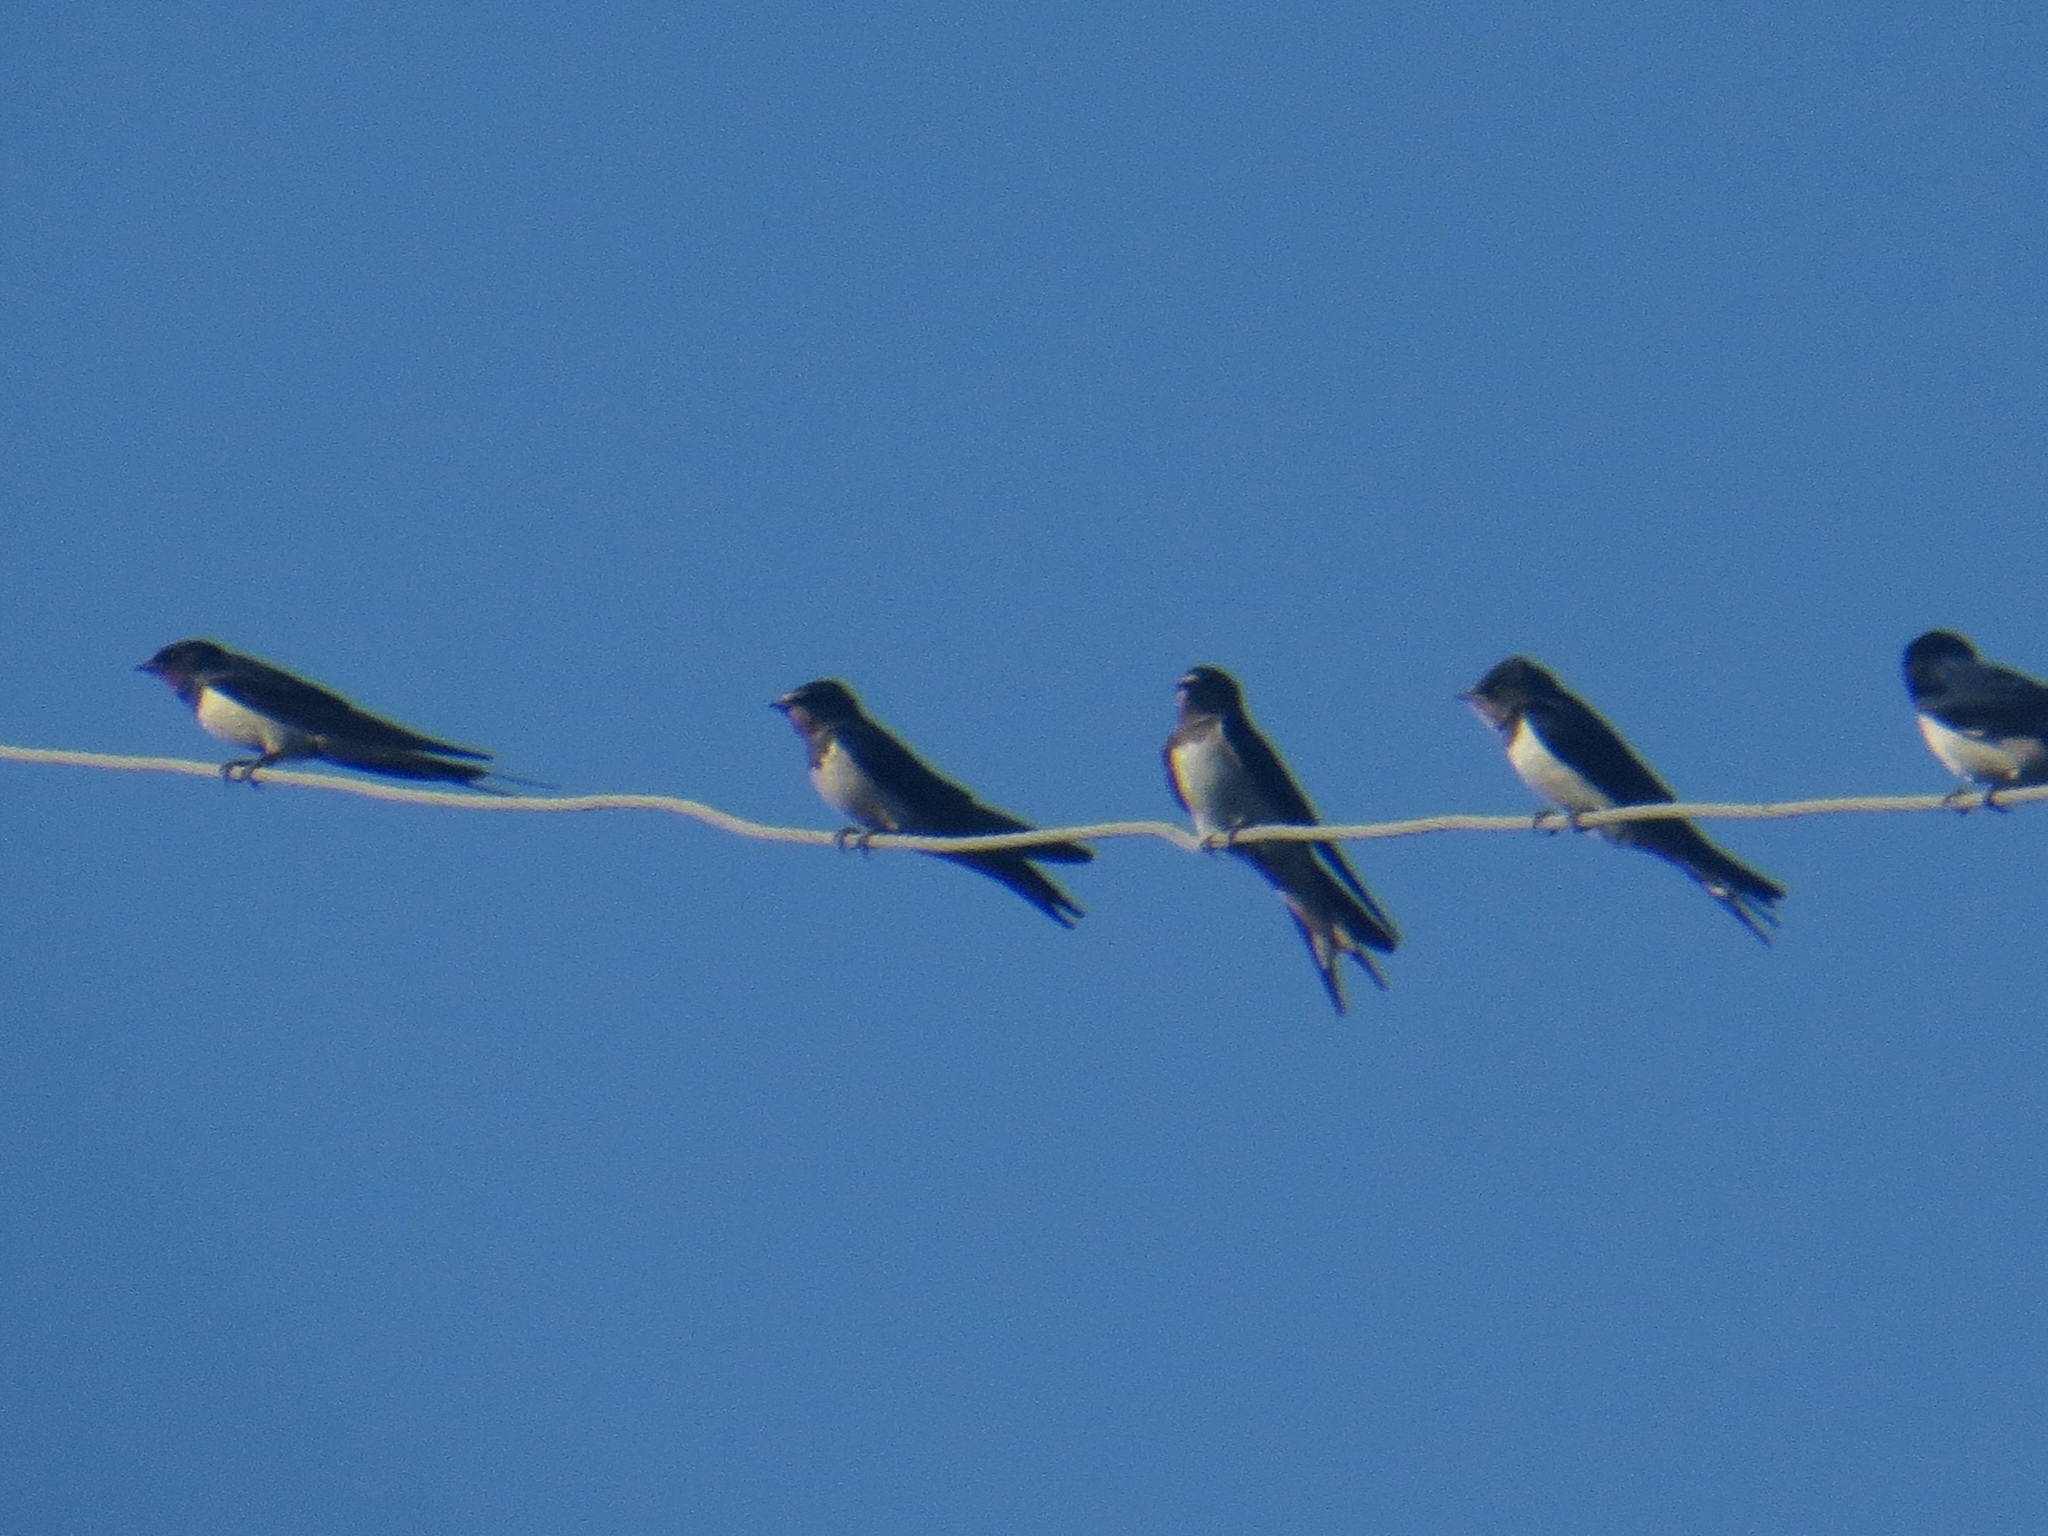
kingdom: Animalia
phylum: Chordata
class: Aves
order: Passeriformes
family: Hirundinidae
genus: Hirundo
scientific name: Hirundo rustica
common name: Barn swallow
